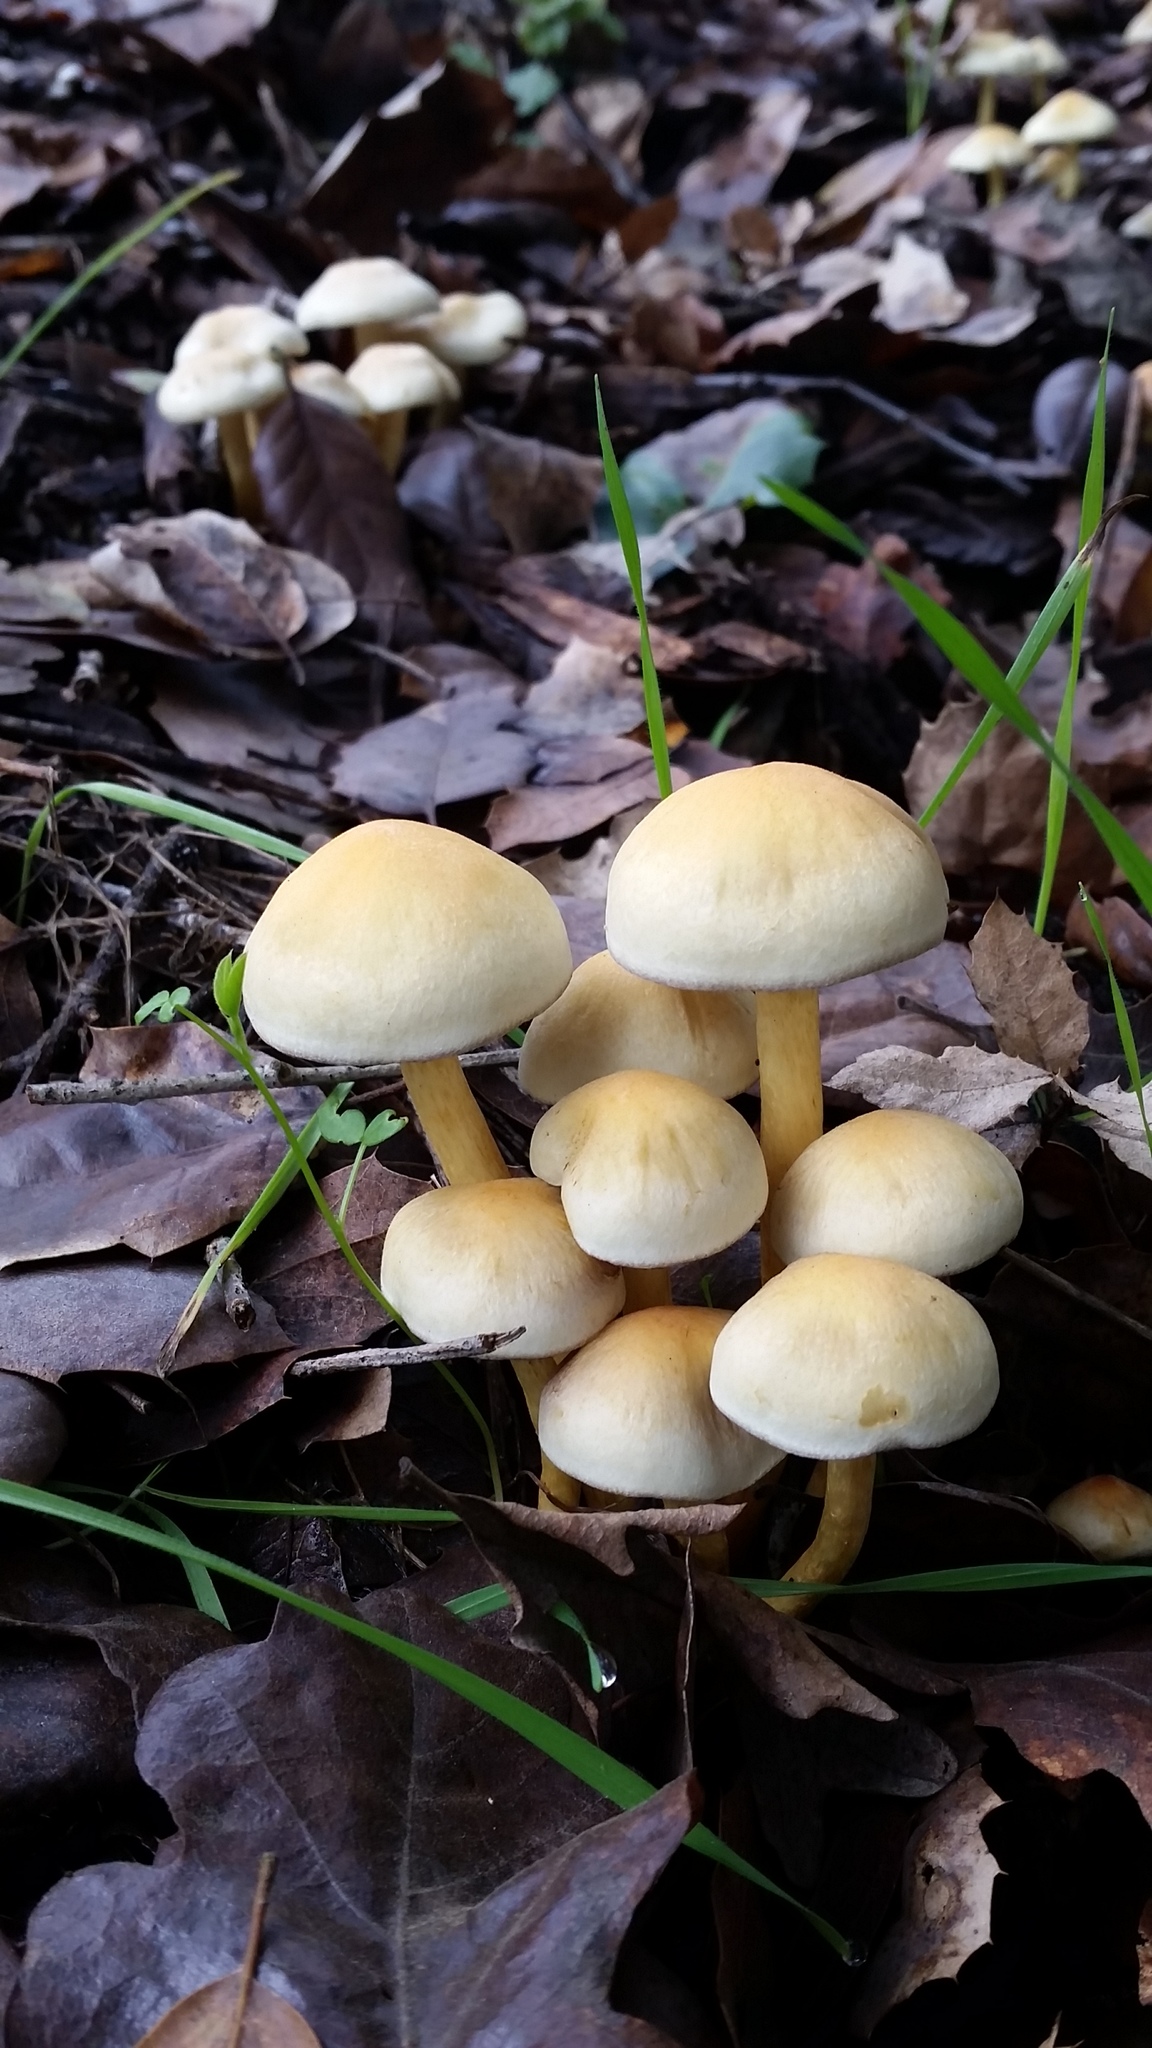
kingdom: Fungi
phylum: Basidiomycota
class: Agaricomycetes
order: Agaricales
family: Strophariaceae
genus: Hypholoma
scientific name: Hypholoma fasciculare
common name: Sulphur tuft
